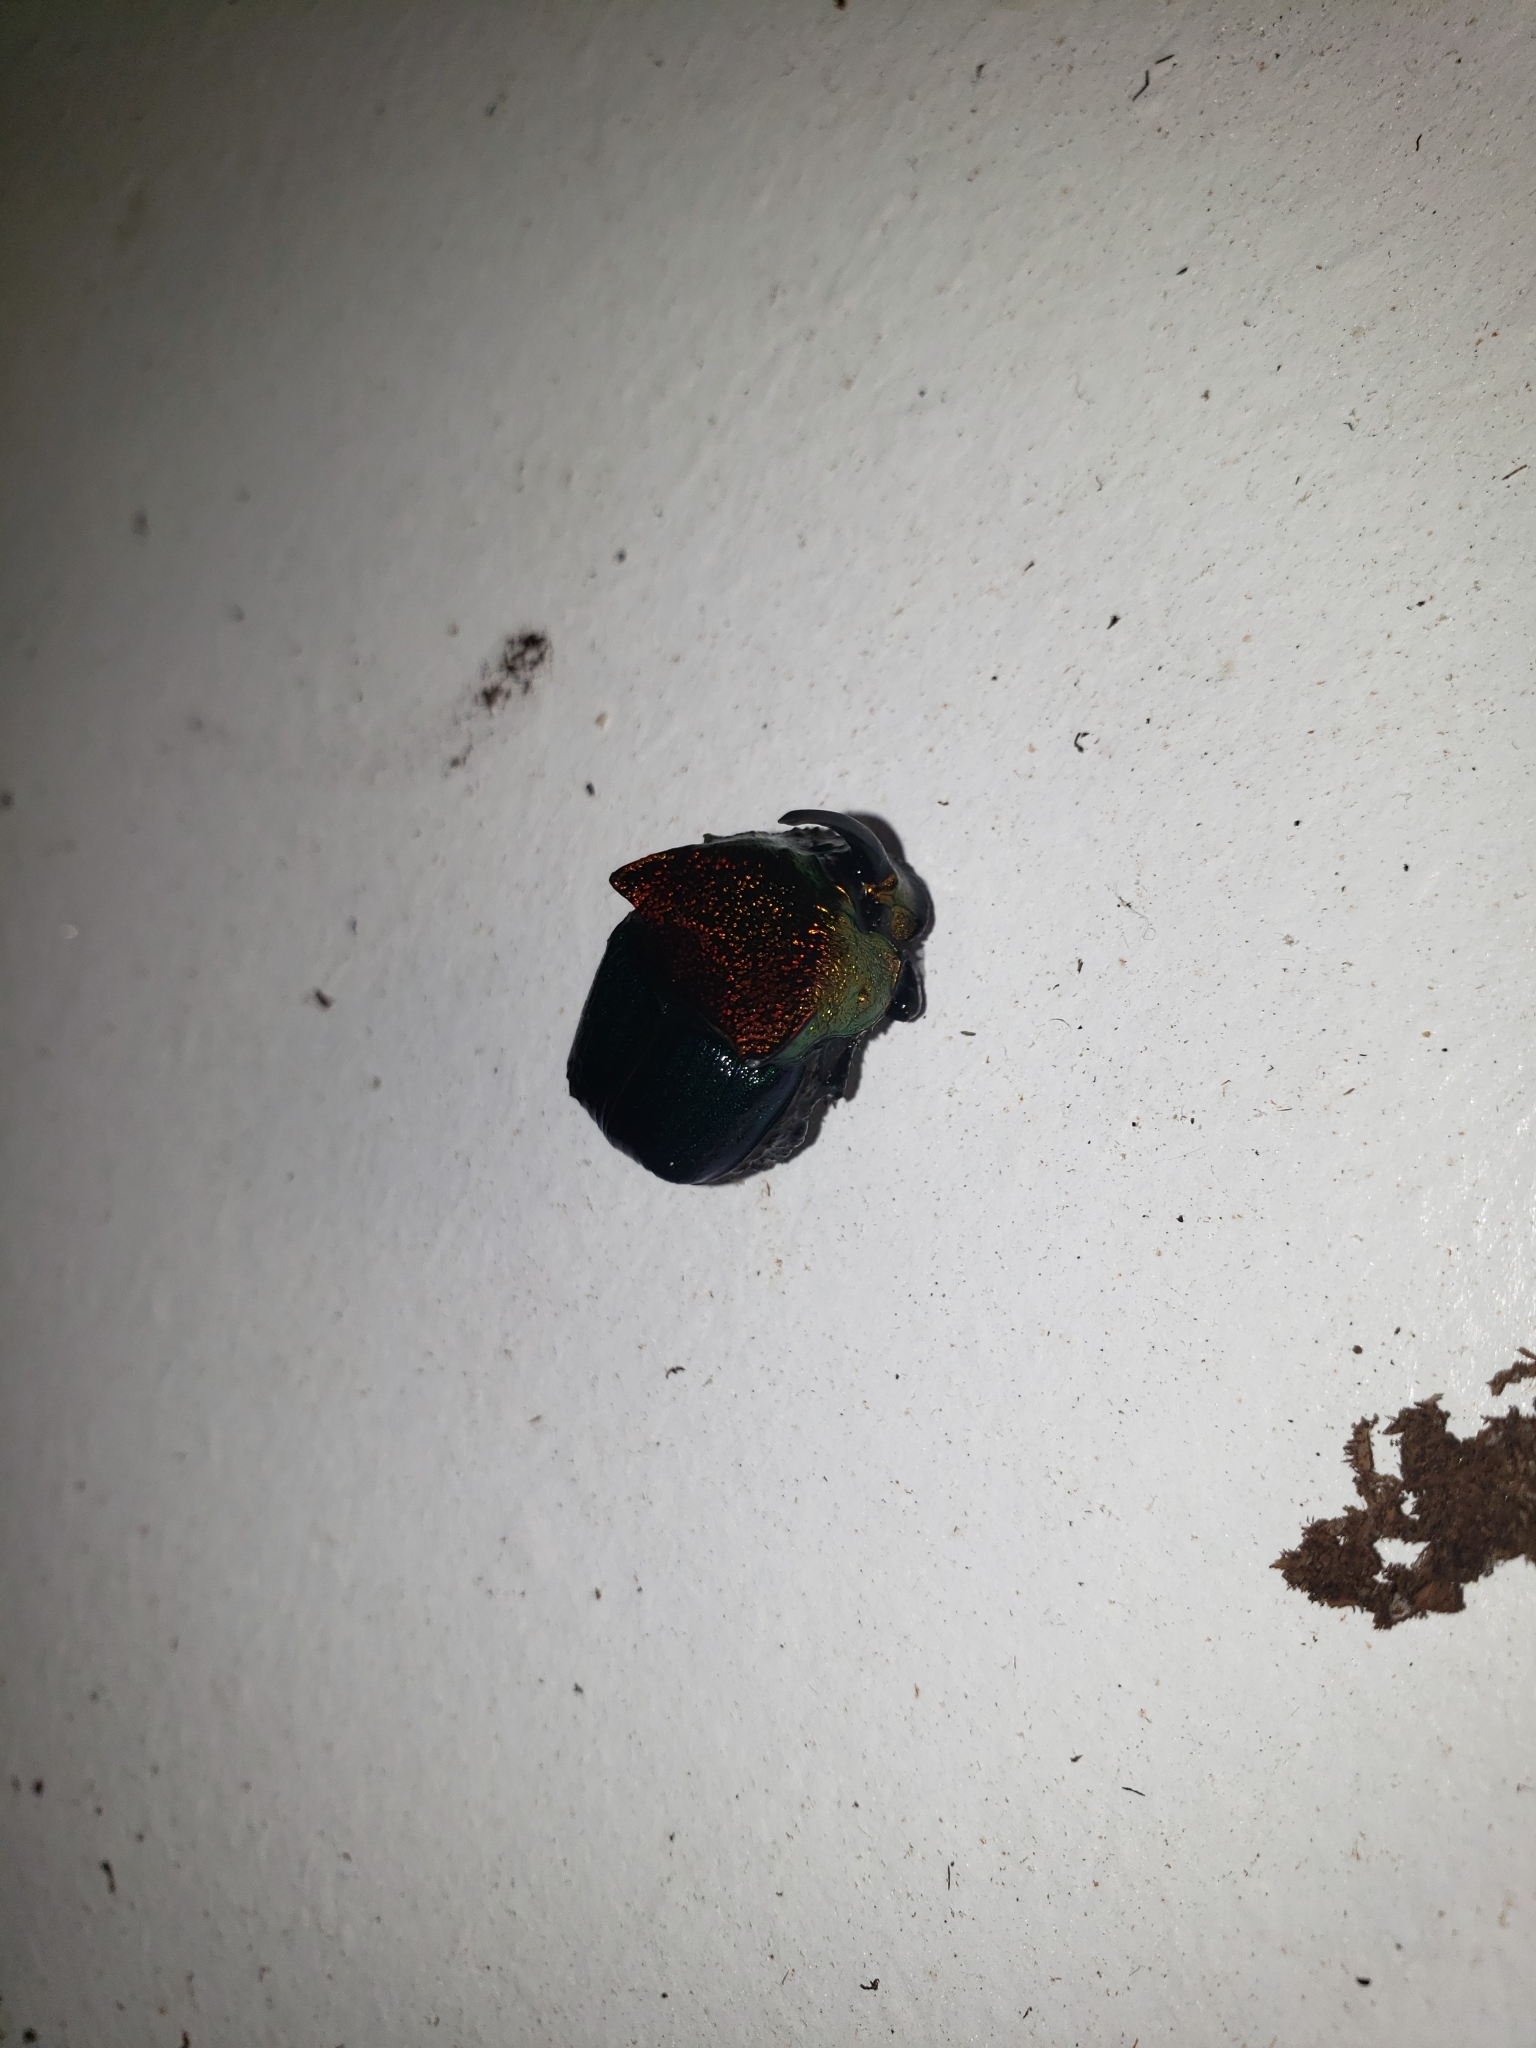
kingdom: Animalia
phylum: Arthropoda
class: Insecta
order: Coleoptera
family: Scarabaeidae
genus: Phanaeus
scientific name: Phanaeus vindex
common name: Rainbow scarab
